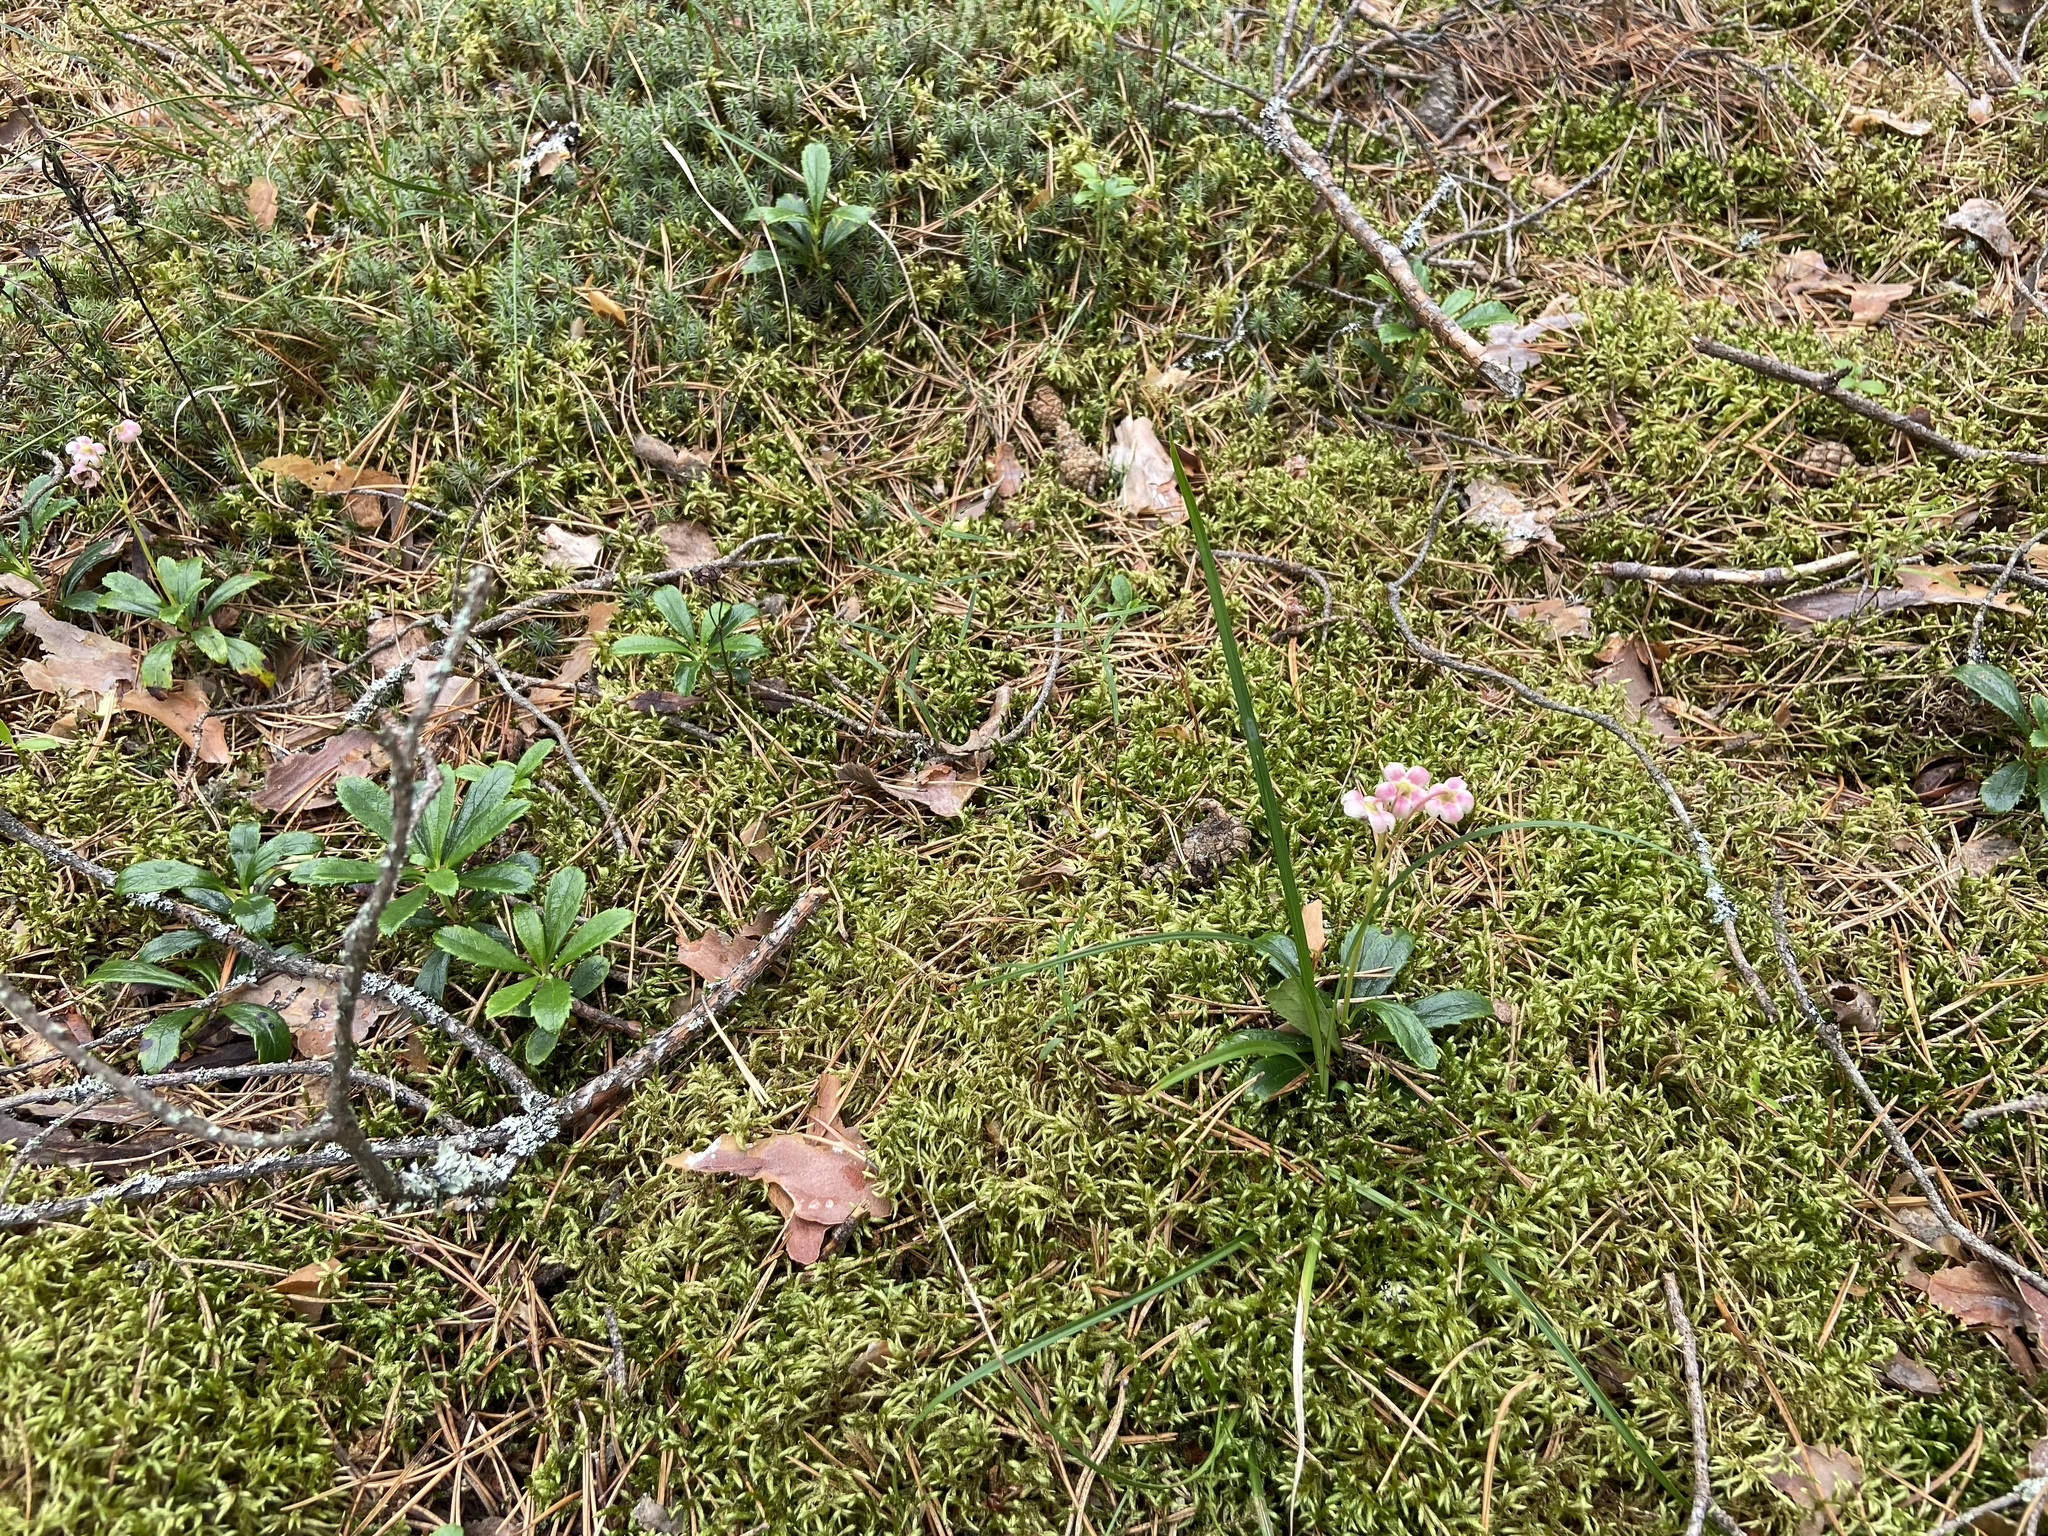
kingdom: Plantae
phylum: Tracheophyta
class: Magnoliopsida
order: Ericales
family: Ericaceae
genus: Chimaphila
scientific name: Chimaphila umbellata
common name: Pipsissewa
